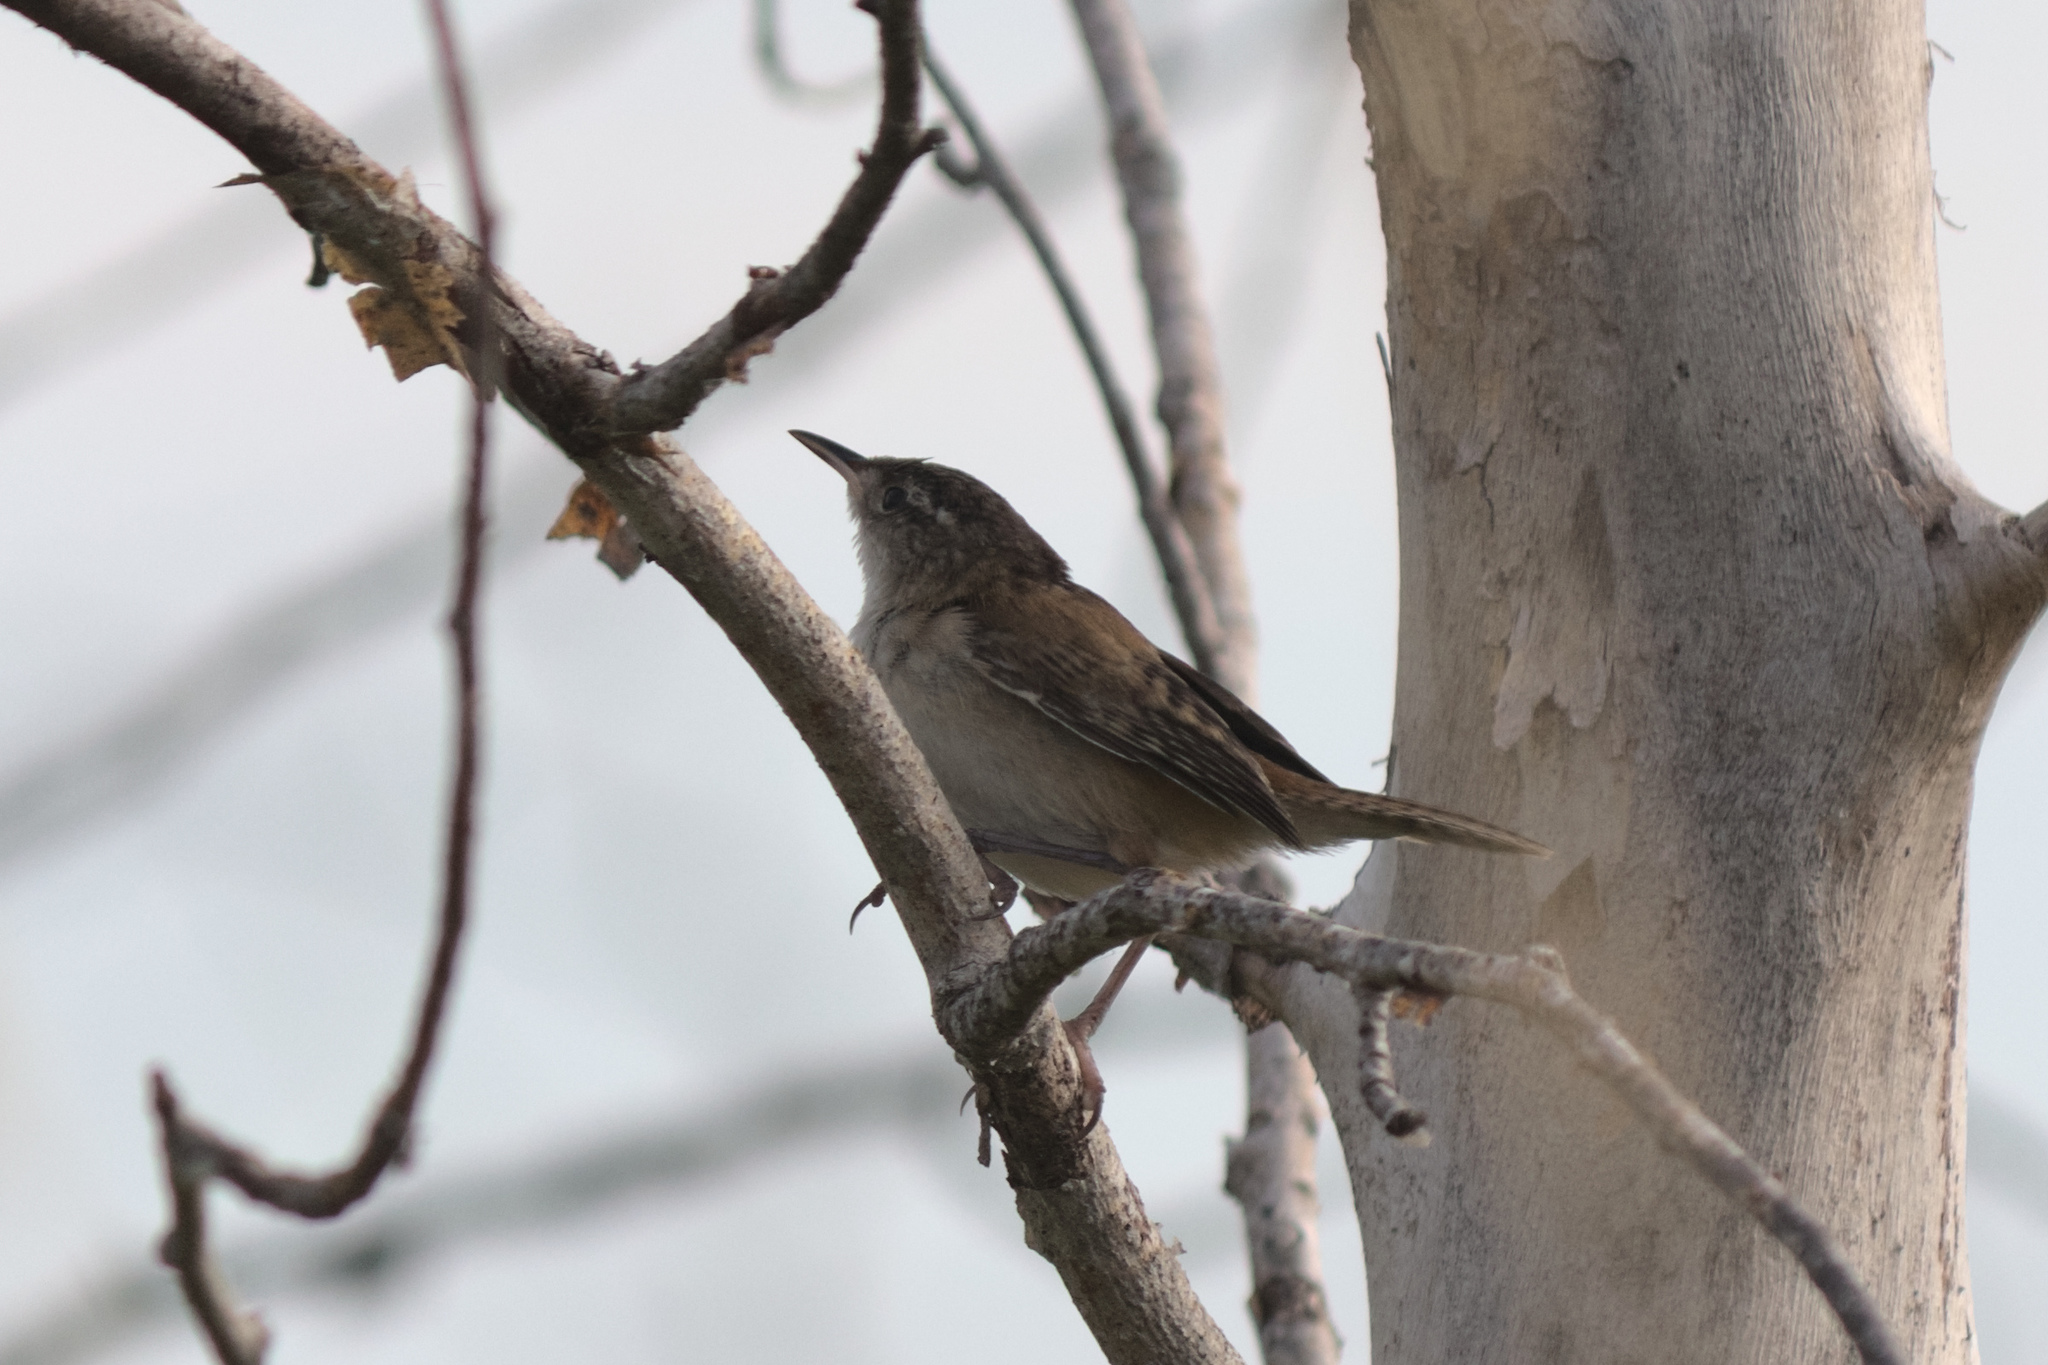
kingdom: Animalia
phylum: Chordata
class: Aves
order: Passeriformes
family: Troglodytidae
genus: Cistothorus
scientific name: Cistothorus palustris
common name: Marsh wren
